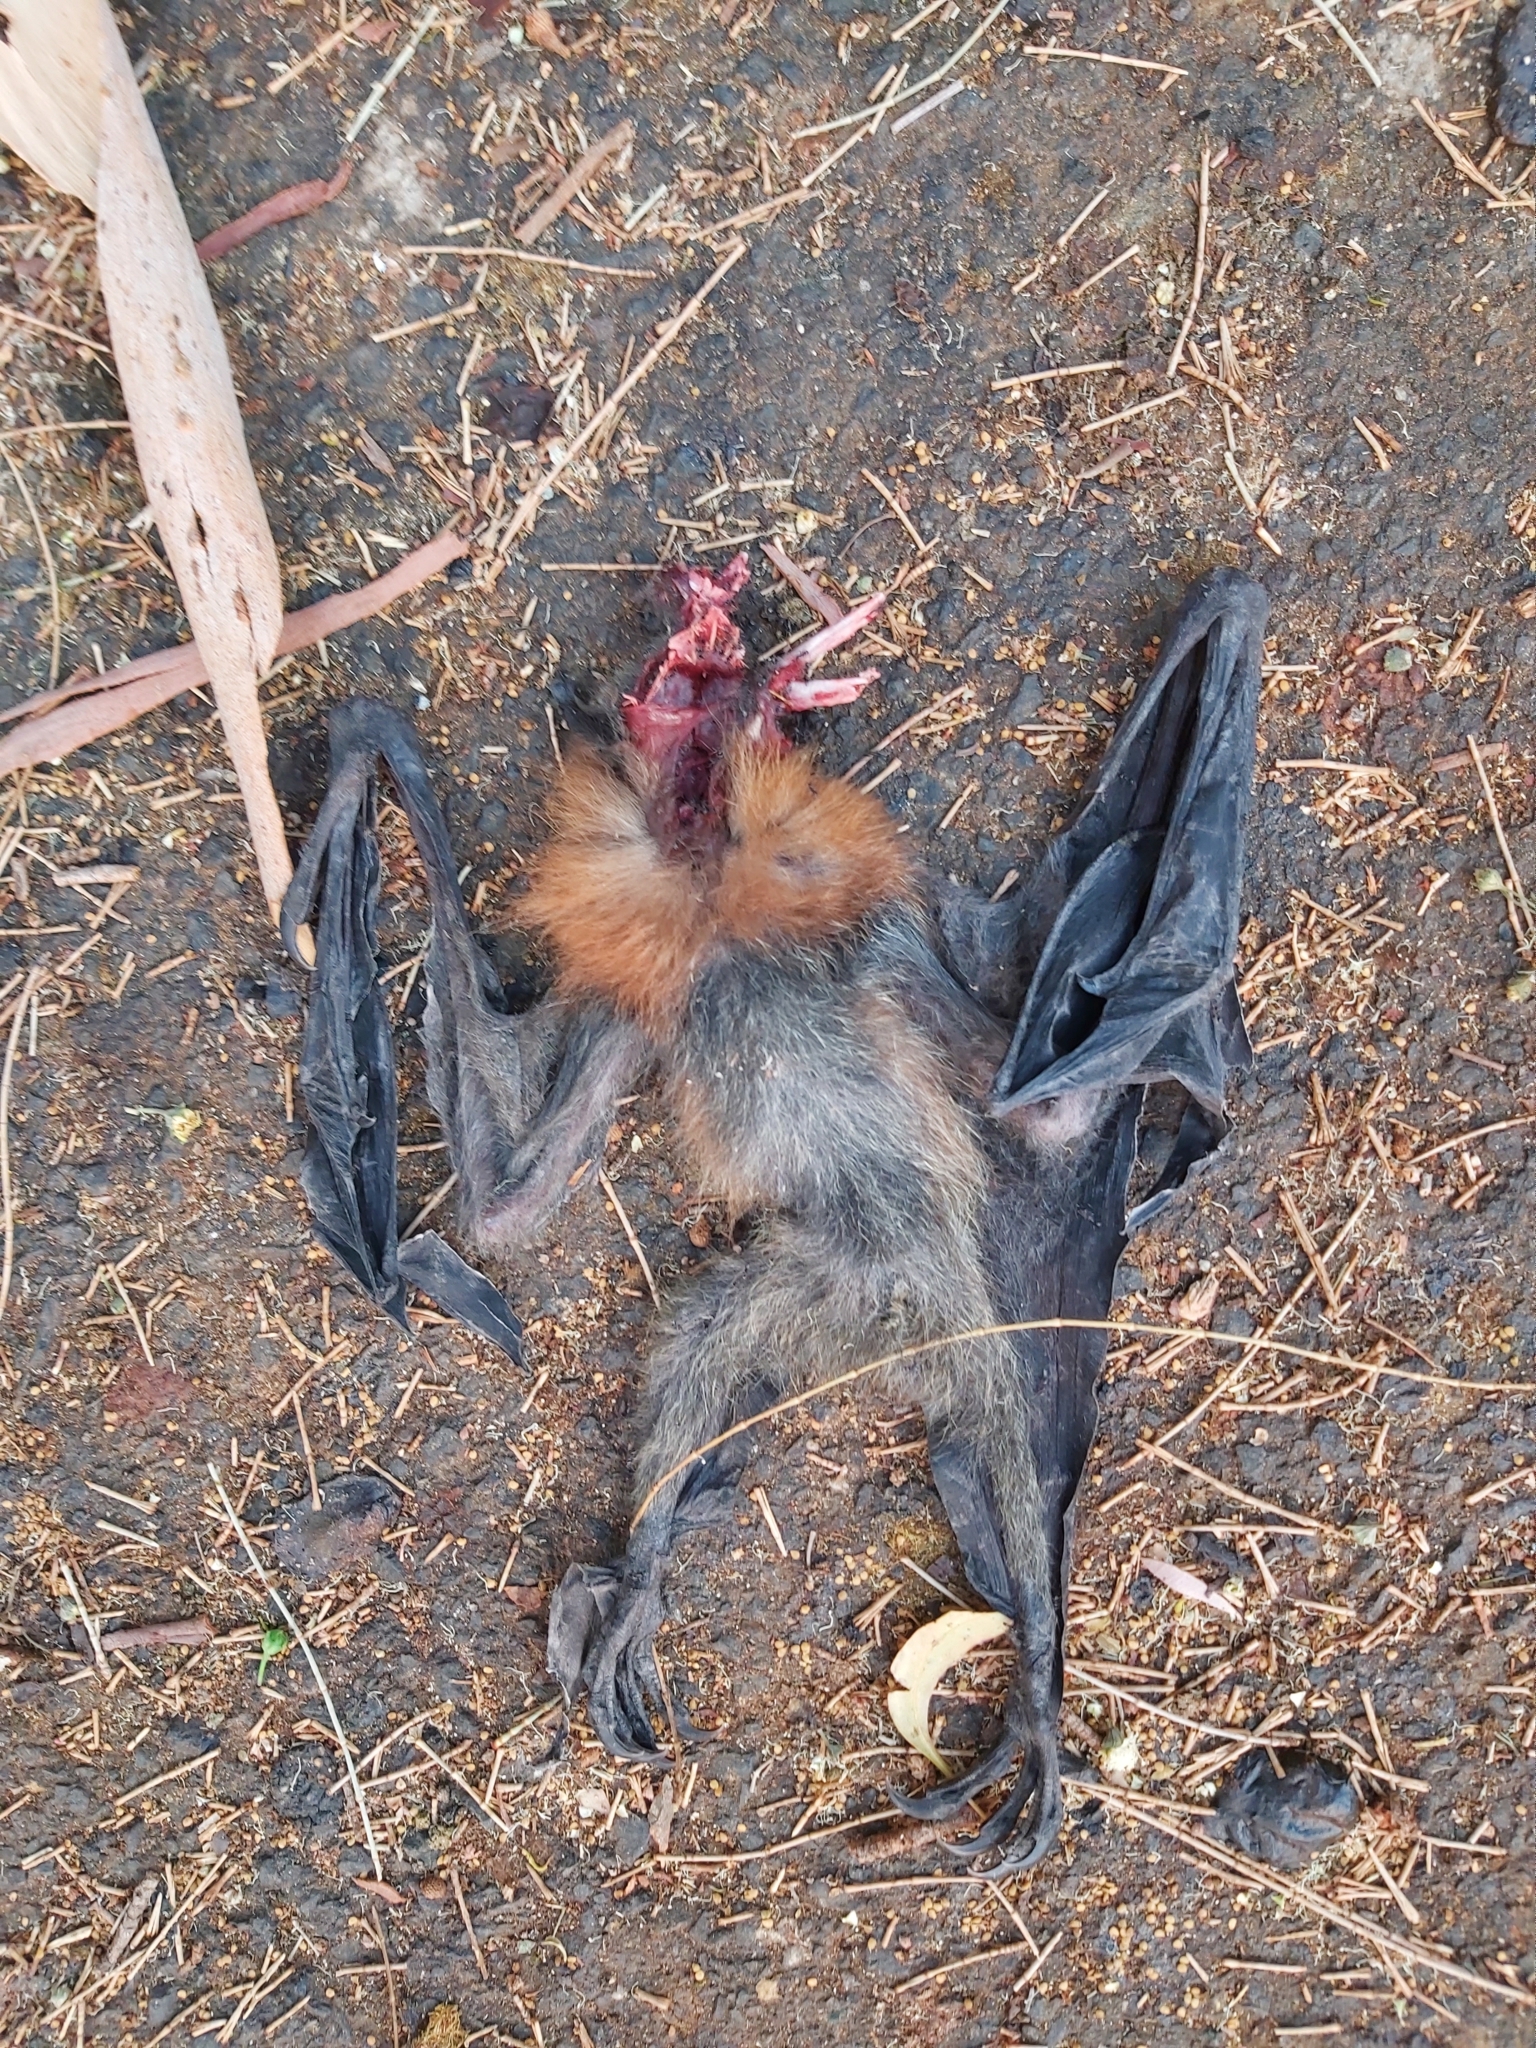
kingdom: Animalia
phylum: Chordata
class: Mammalia
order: Chiroptera
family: Pteropodidae
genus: Pteropus
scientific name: Pteropus poliocephalus
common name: Gray-headed flying fox
